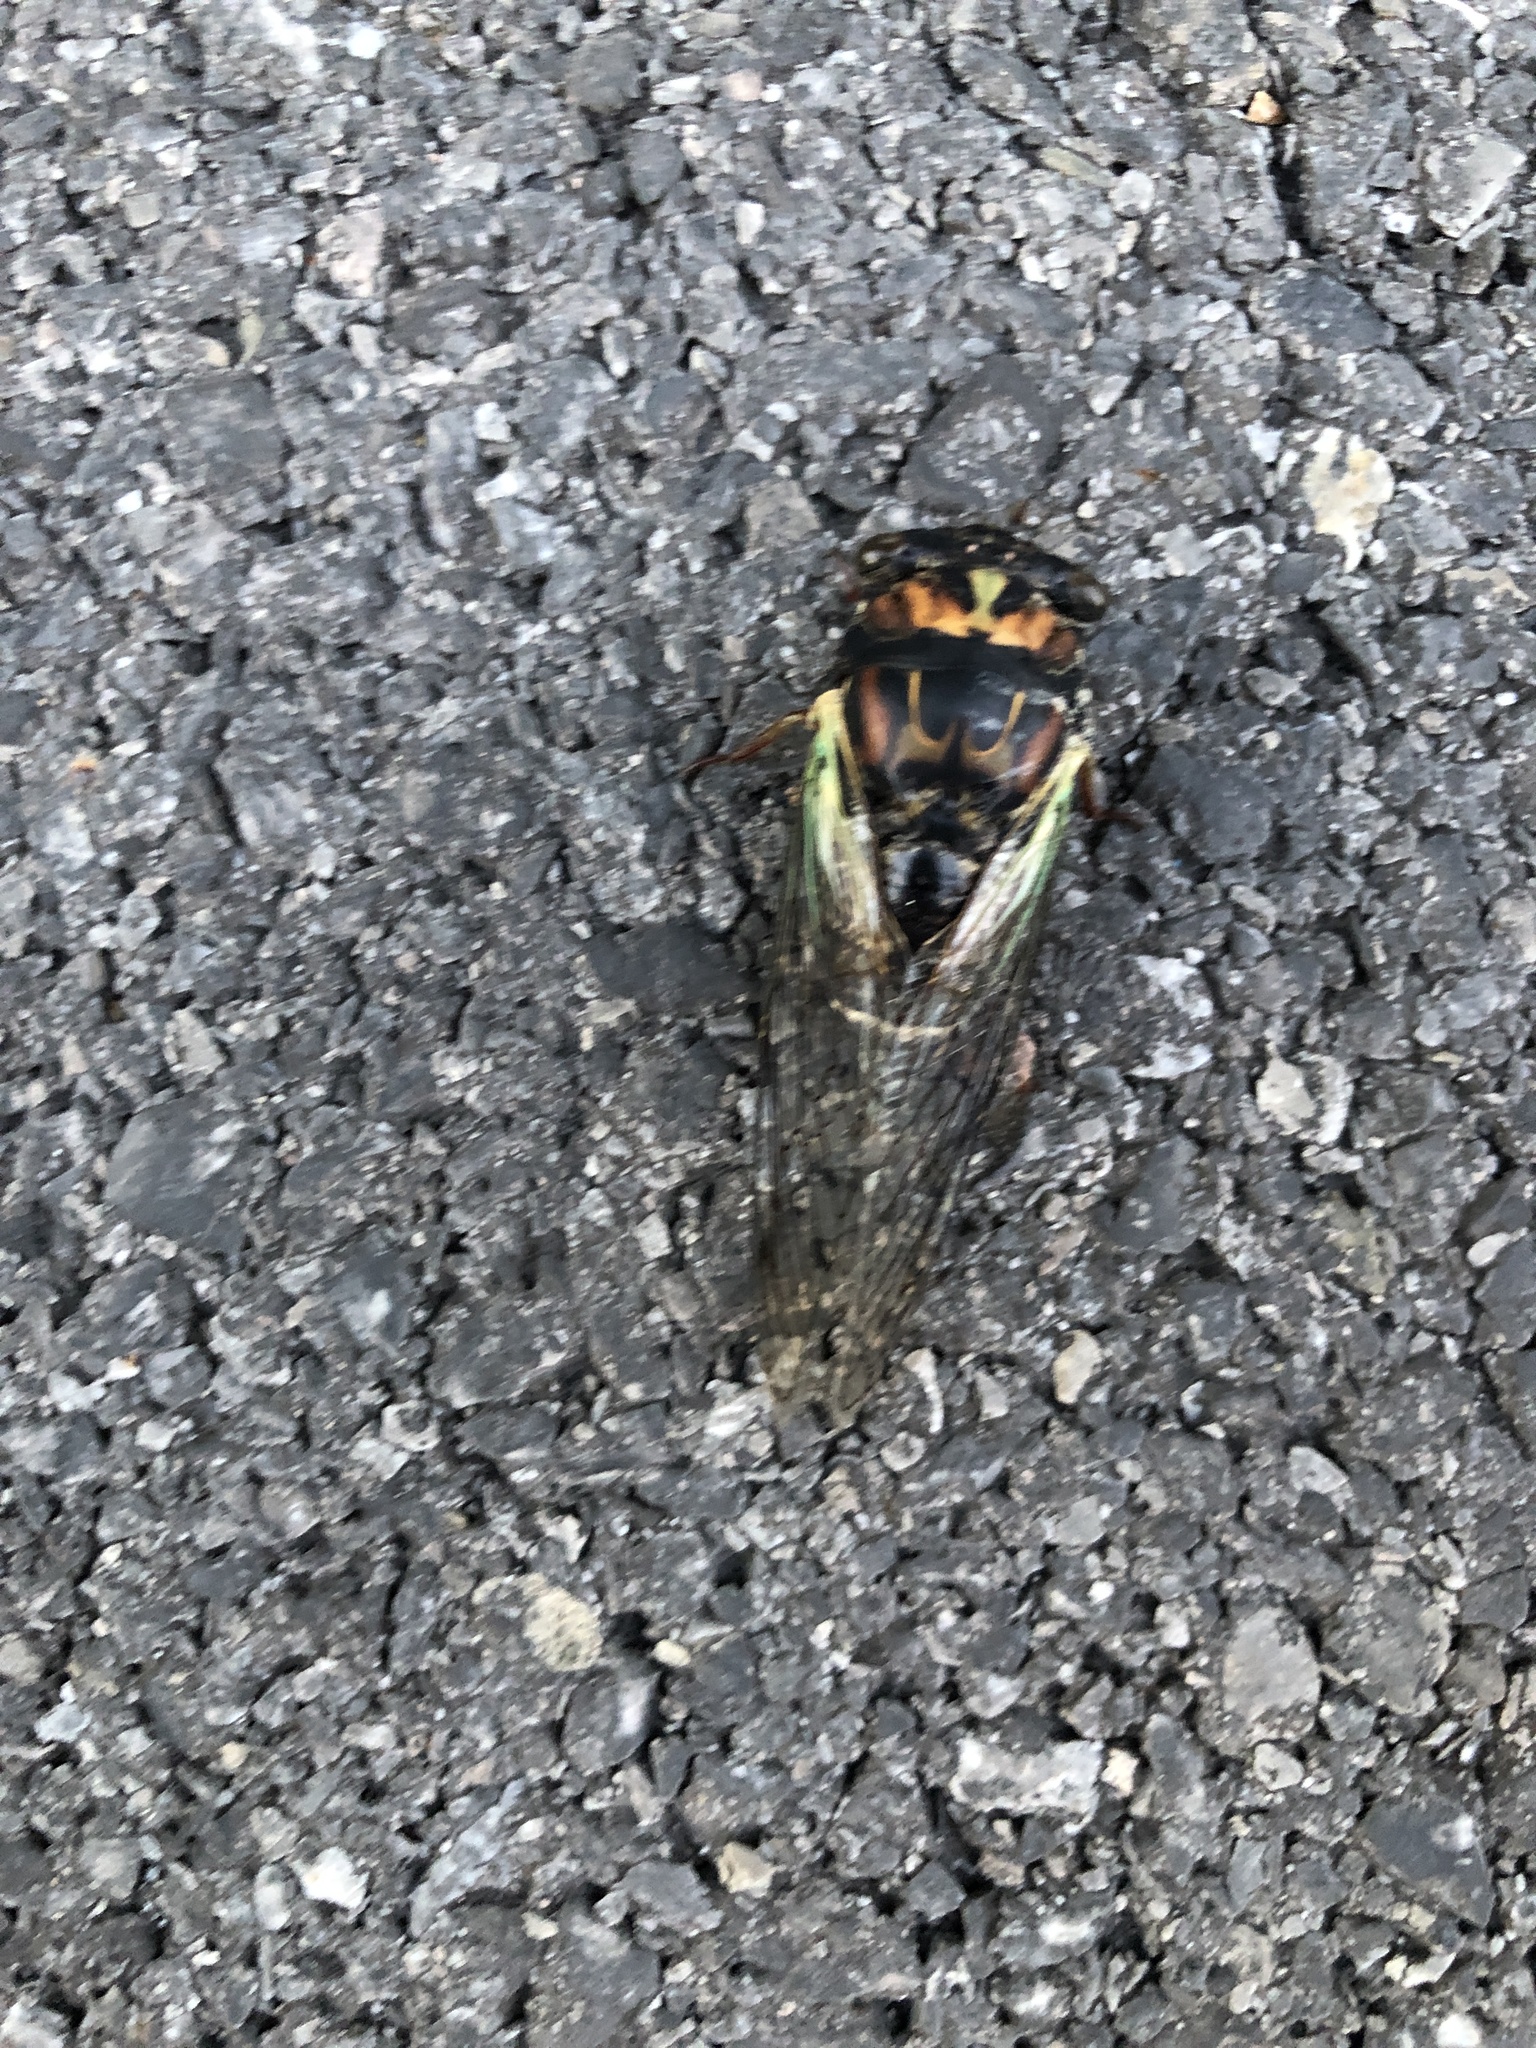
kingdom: Animalia
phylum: Arthropoda
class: Insecta
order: Hemiptera
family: Cicadidae
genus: Neotibicen
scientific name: Neotibicen lyricen
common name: Lyric cicada
